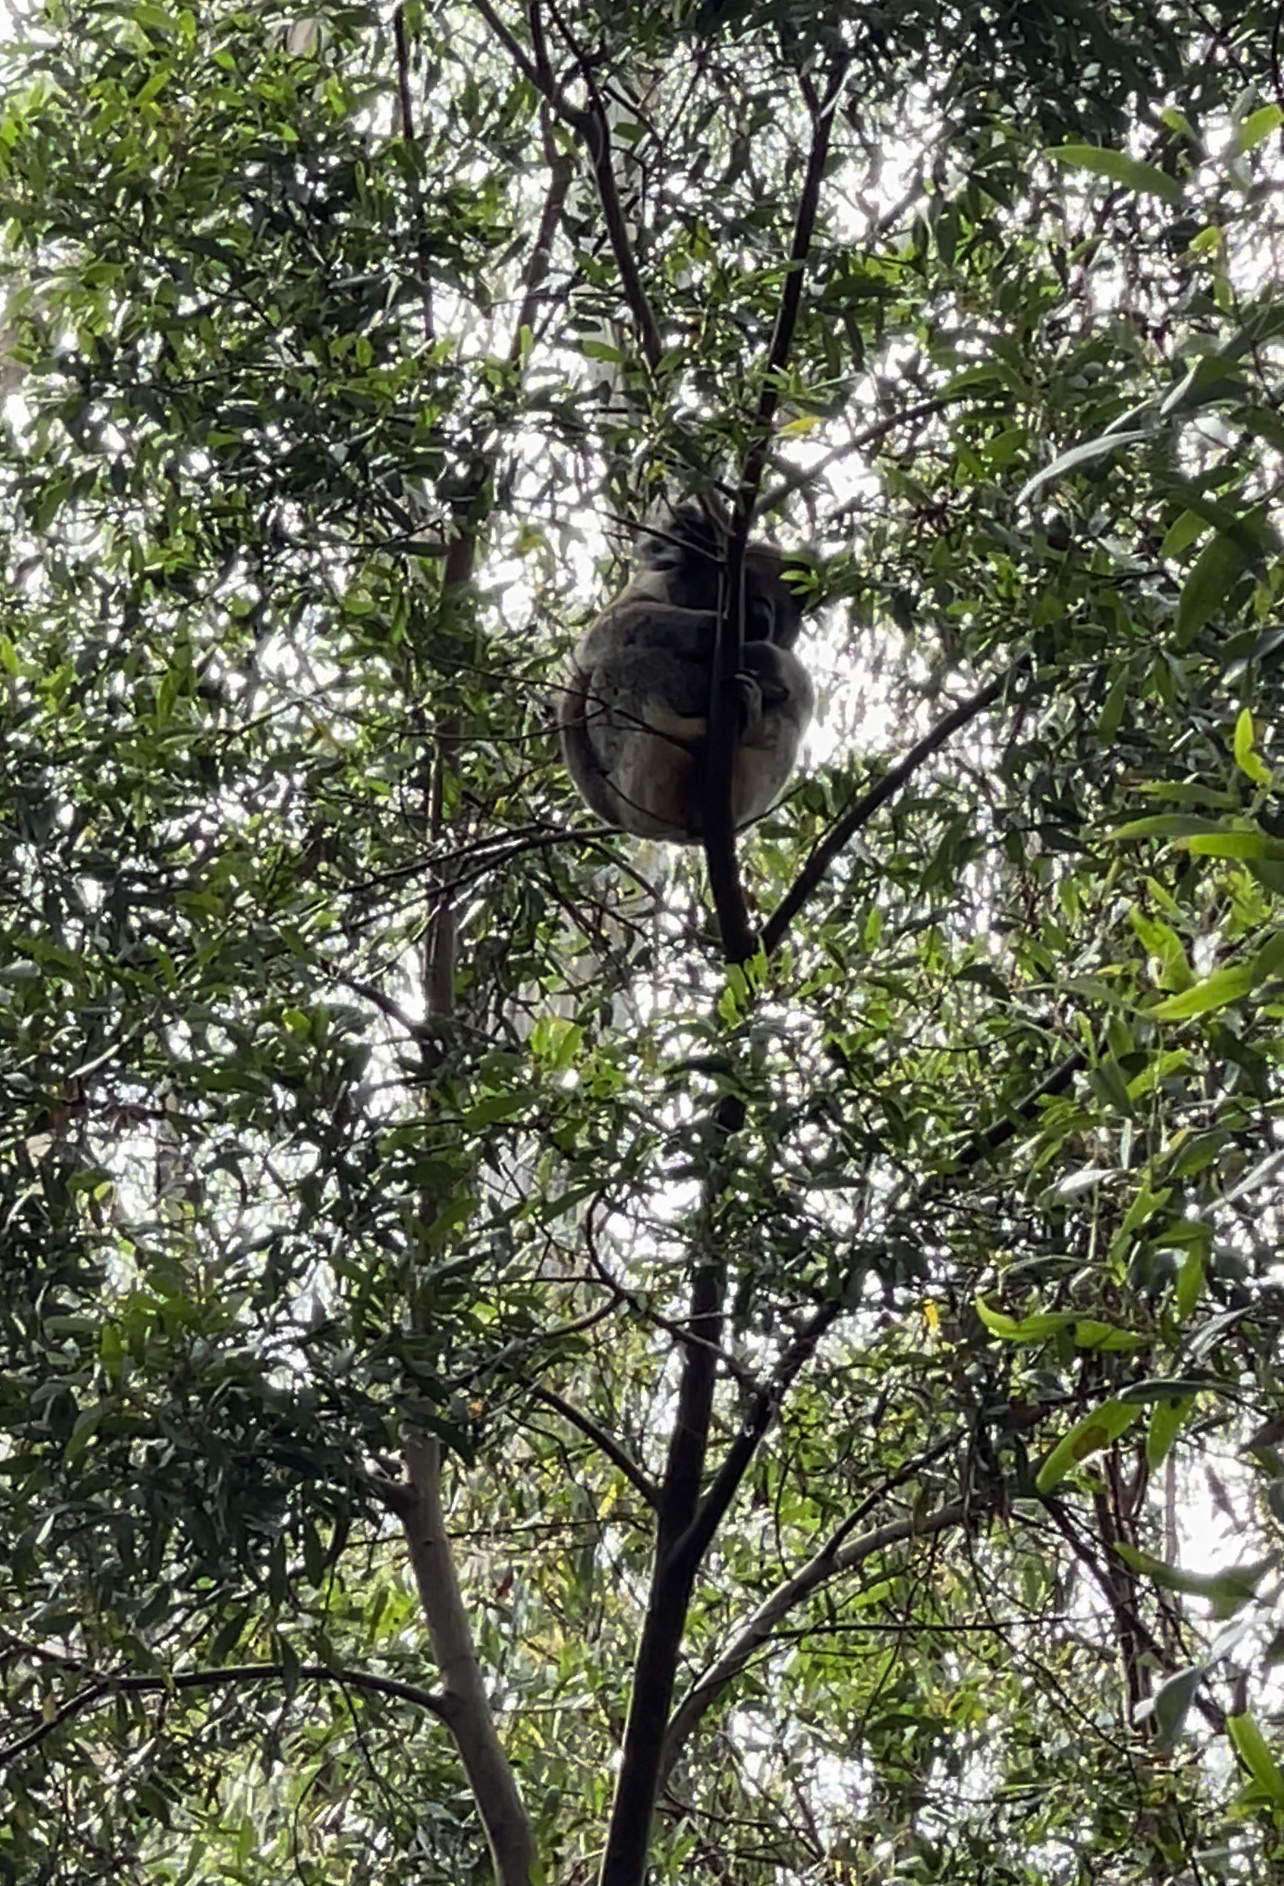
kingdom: Animalia
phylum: Chordata
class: Mammalia
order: Diprotodontia
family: Phascolarctidae
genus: Phascolarctos
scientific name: Phascolarctos cinereus
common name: Koala
